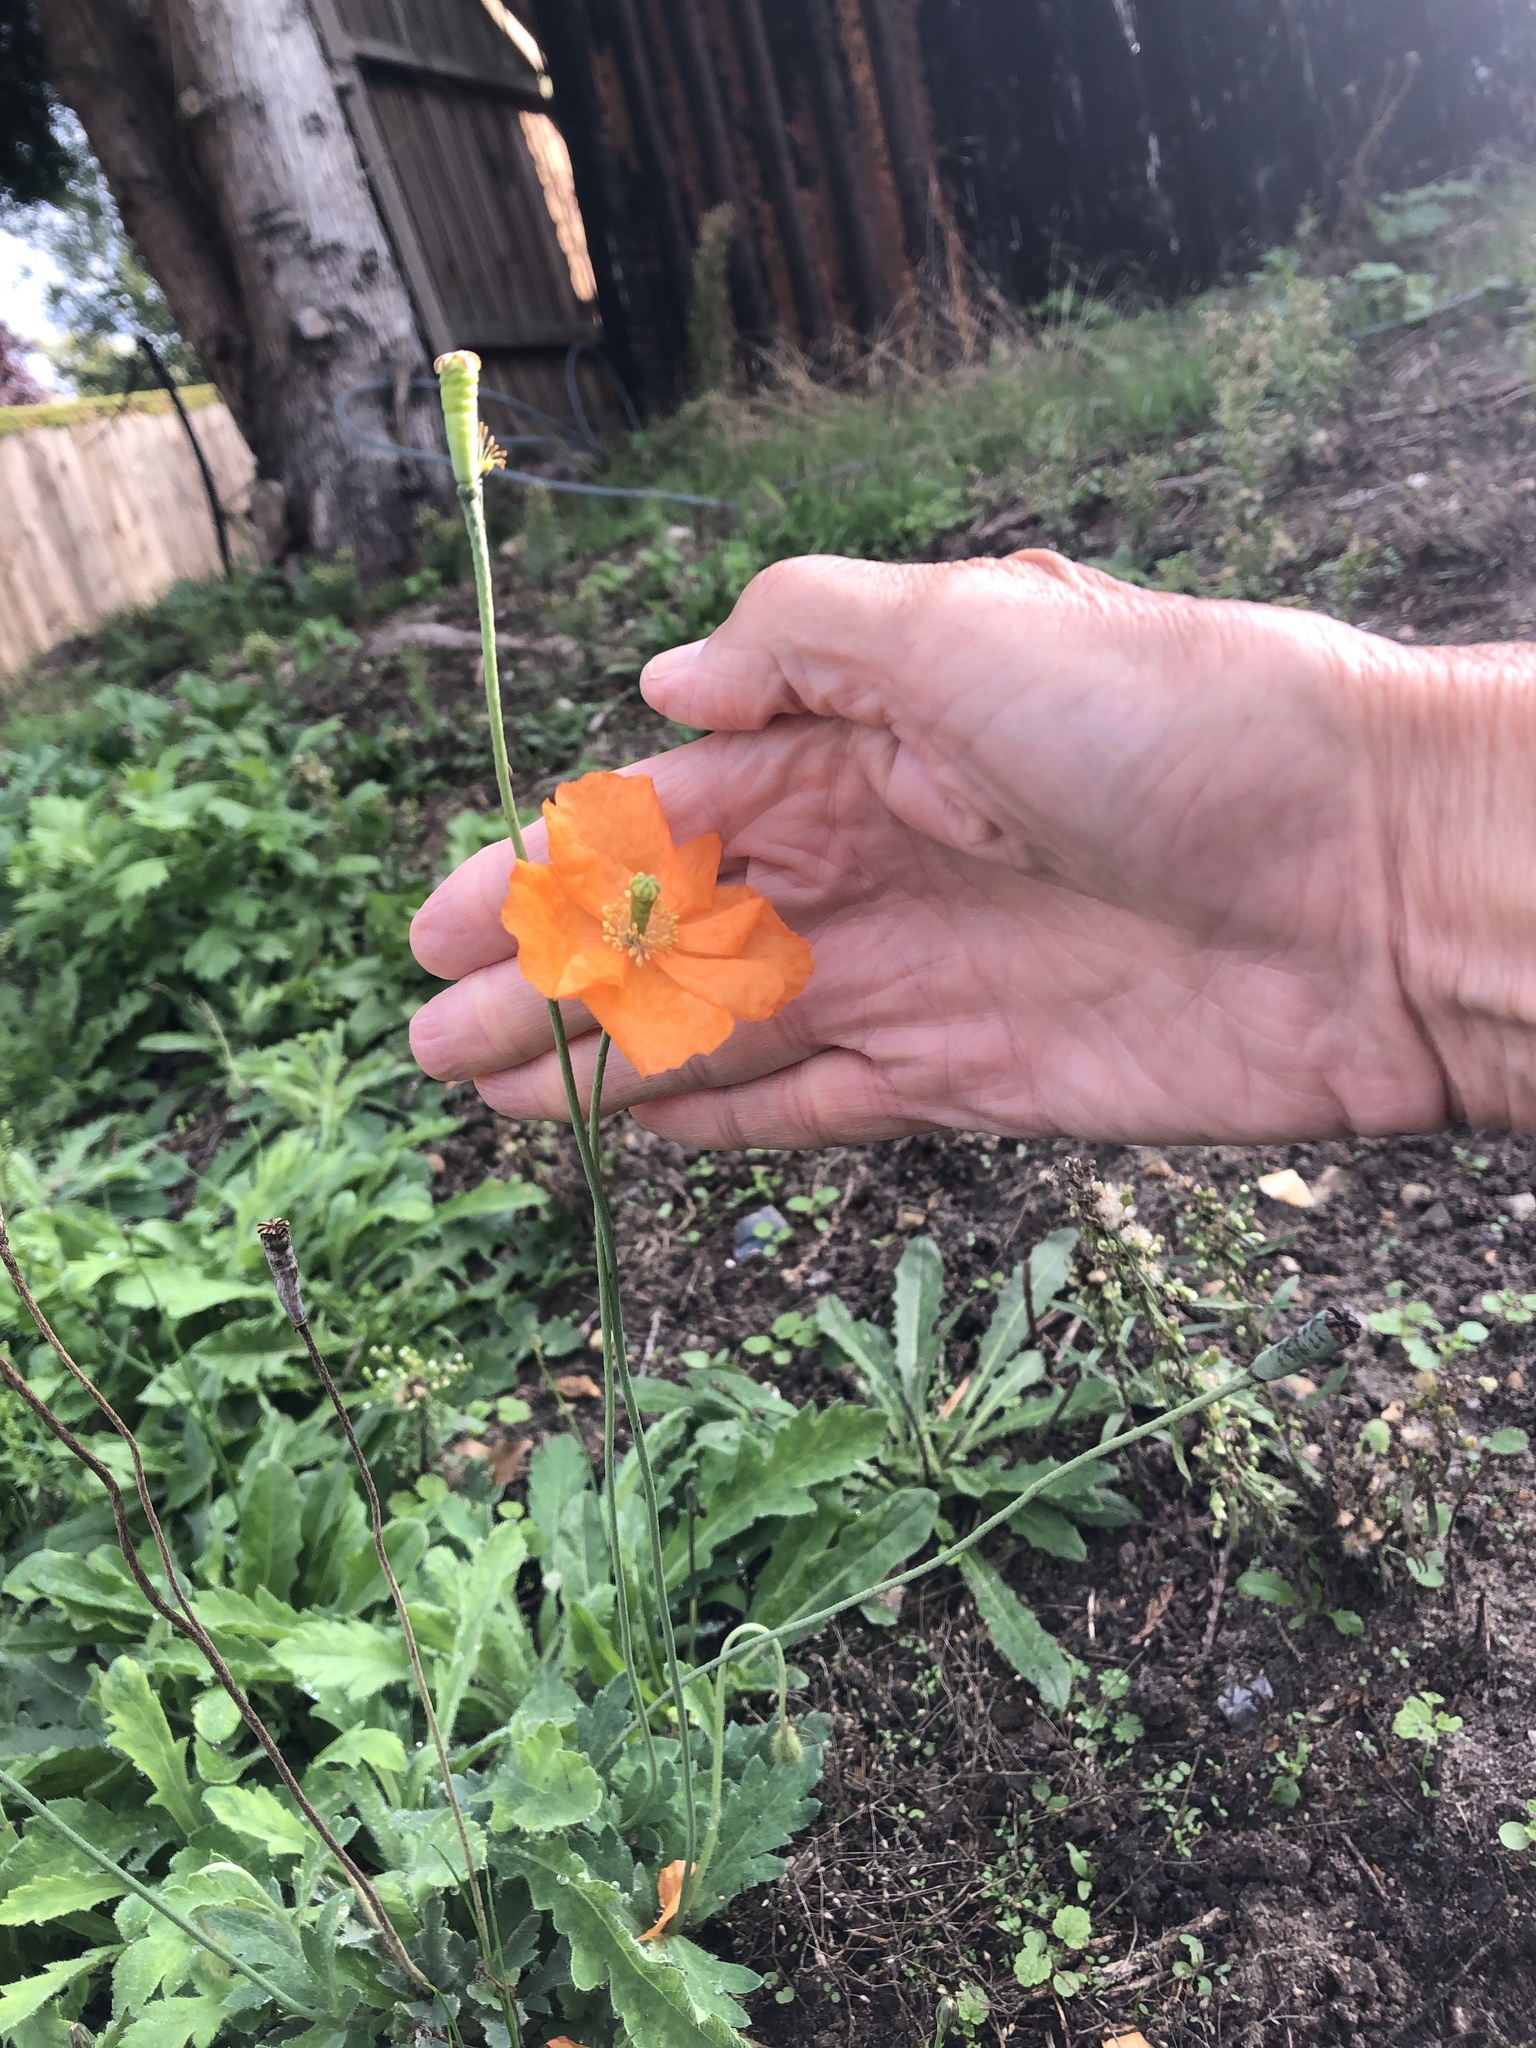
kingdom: Plantae
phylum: Tracheophyta
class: Magnoliopsida
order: Ranunculales
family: Papaveraceae
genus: Papaver
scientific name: Papaver atlanticum
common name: Atlas poppy
